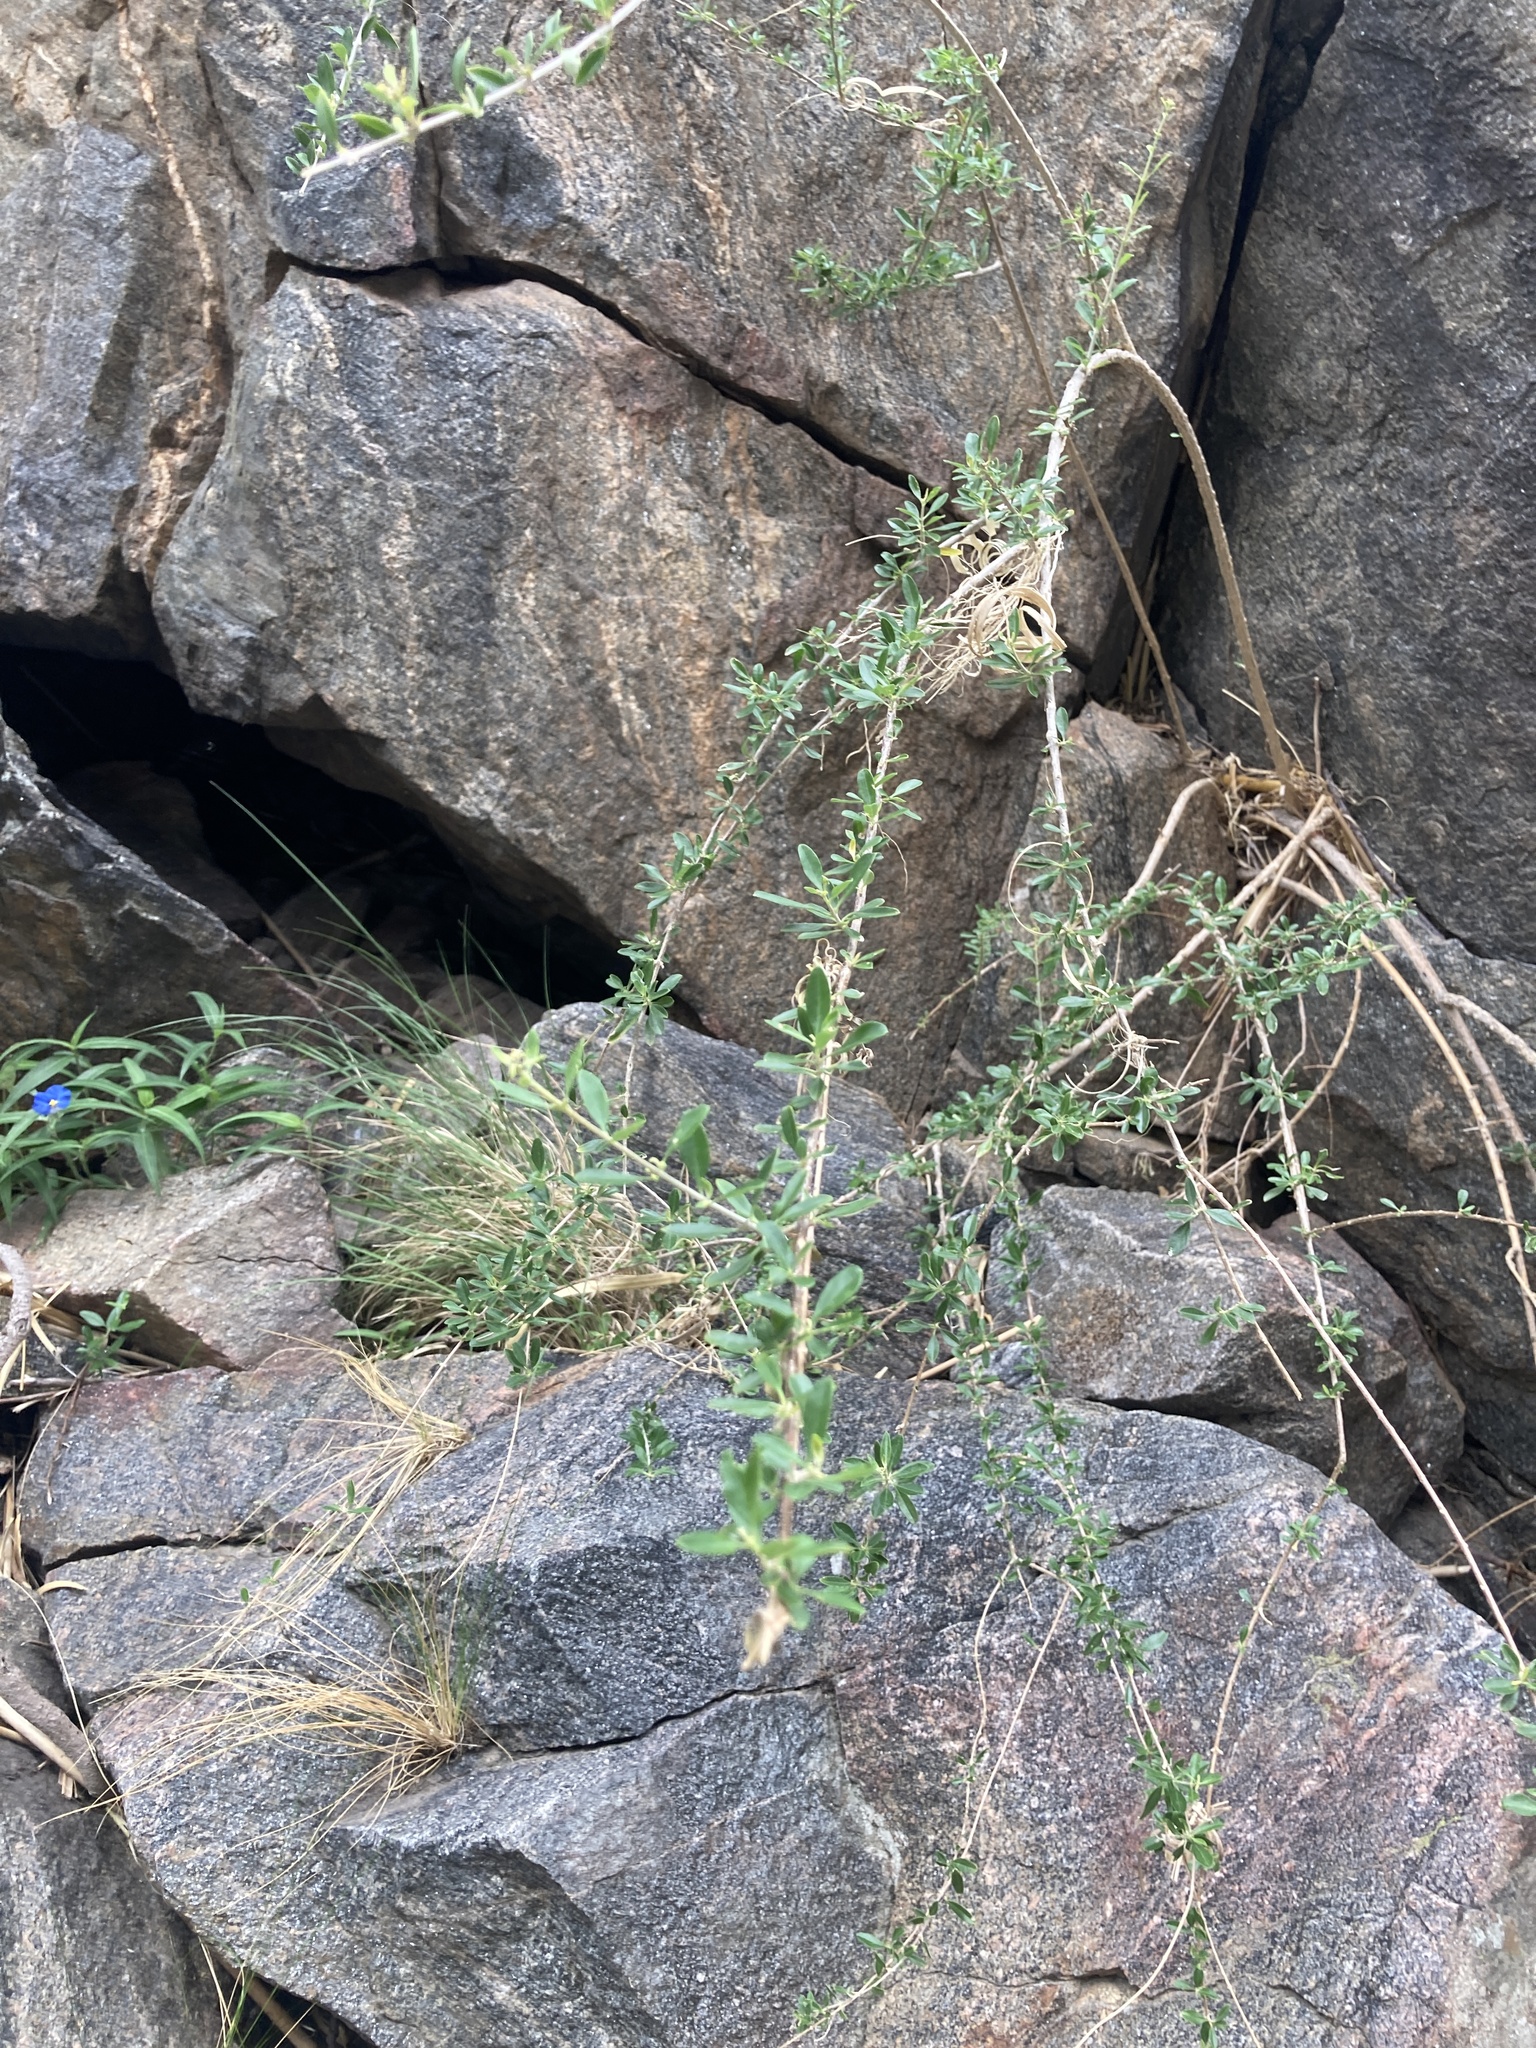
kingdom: Plantae
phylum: Tracheophyta
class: Magnoliopsida
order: Lamiales
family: Verbenaceae
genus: Aloysia
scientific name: Aloysia gratissima
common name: Common bee-brush
